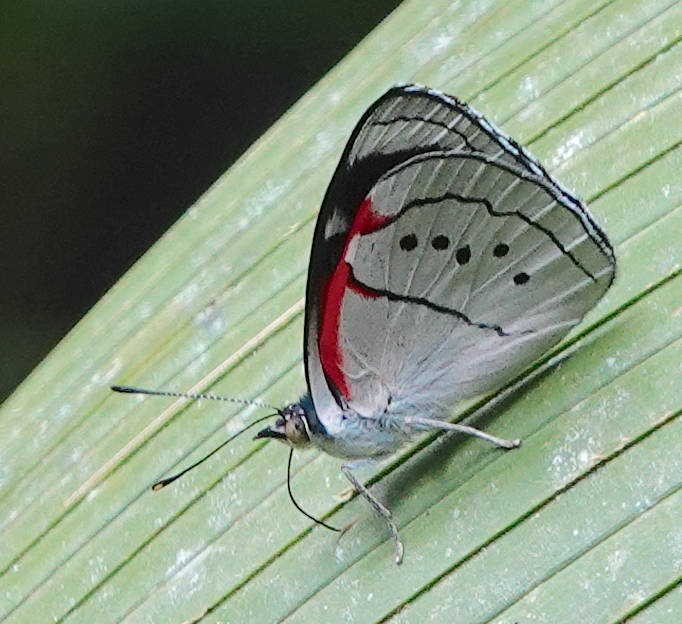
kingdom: Animalia
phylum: Arthropoda
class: Insecta
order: Lepidoptera
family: Nymphalidae
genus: Perisama
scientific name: Perisama alicia
